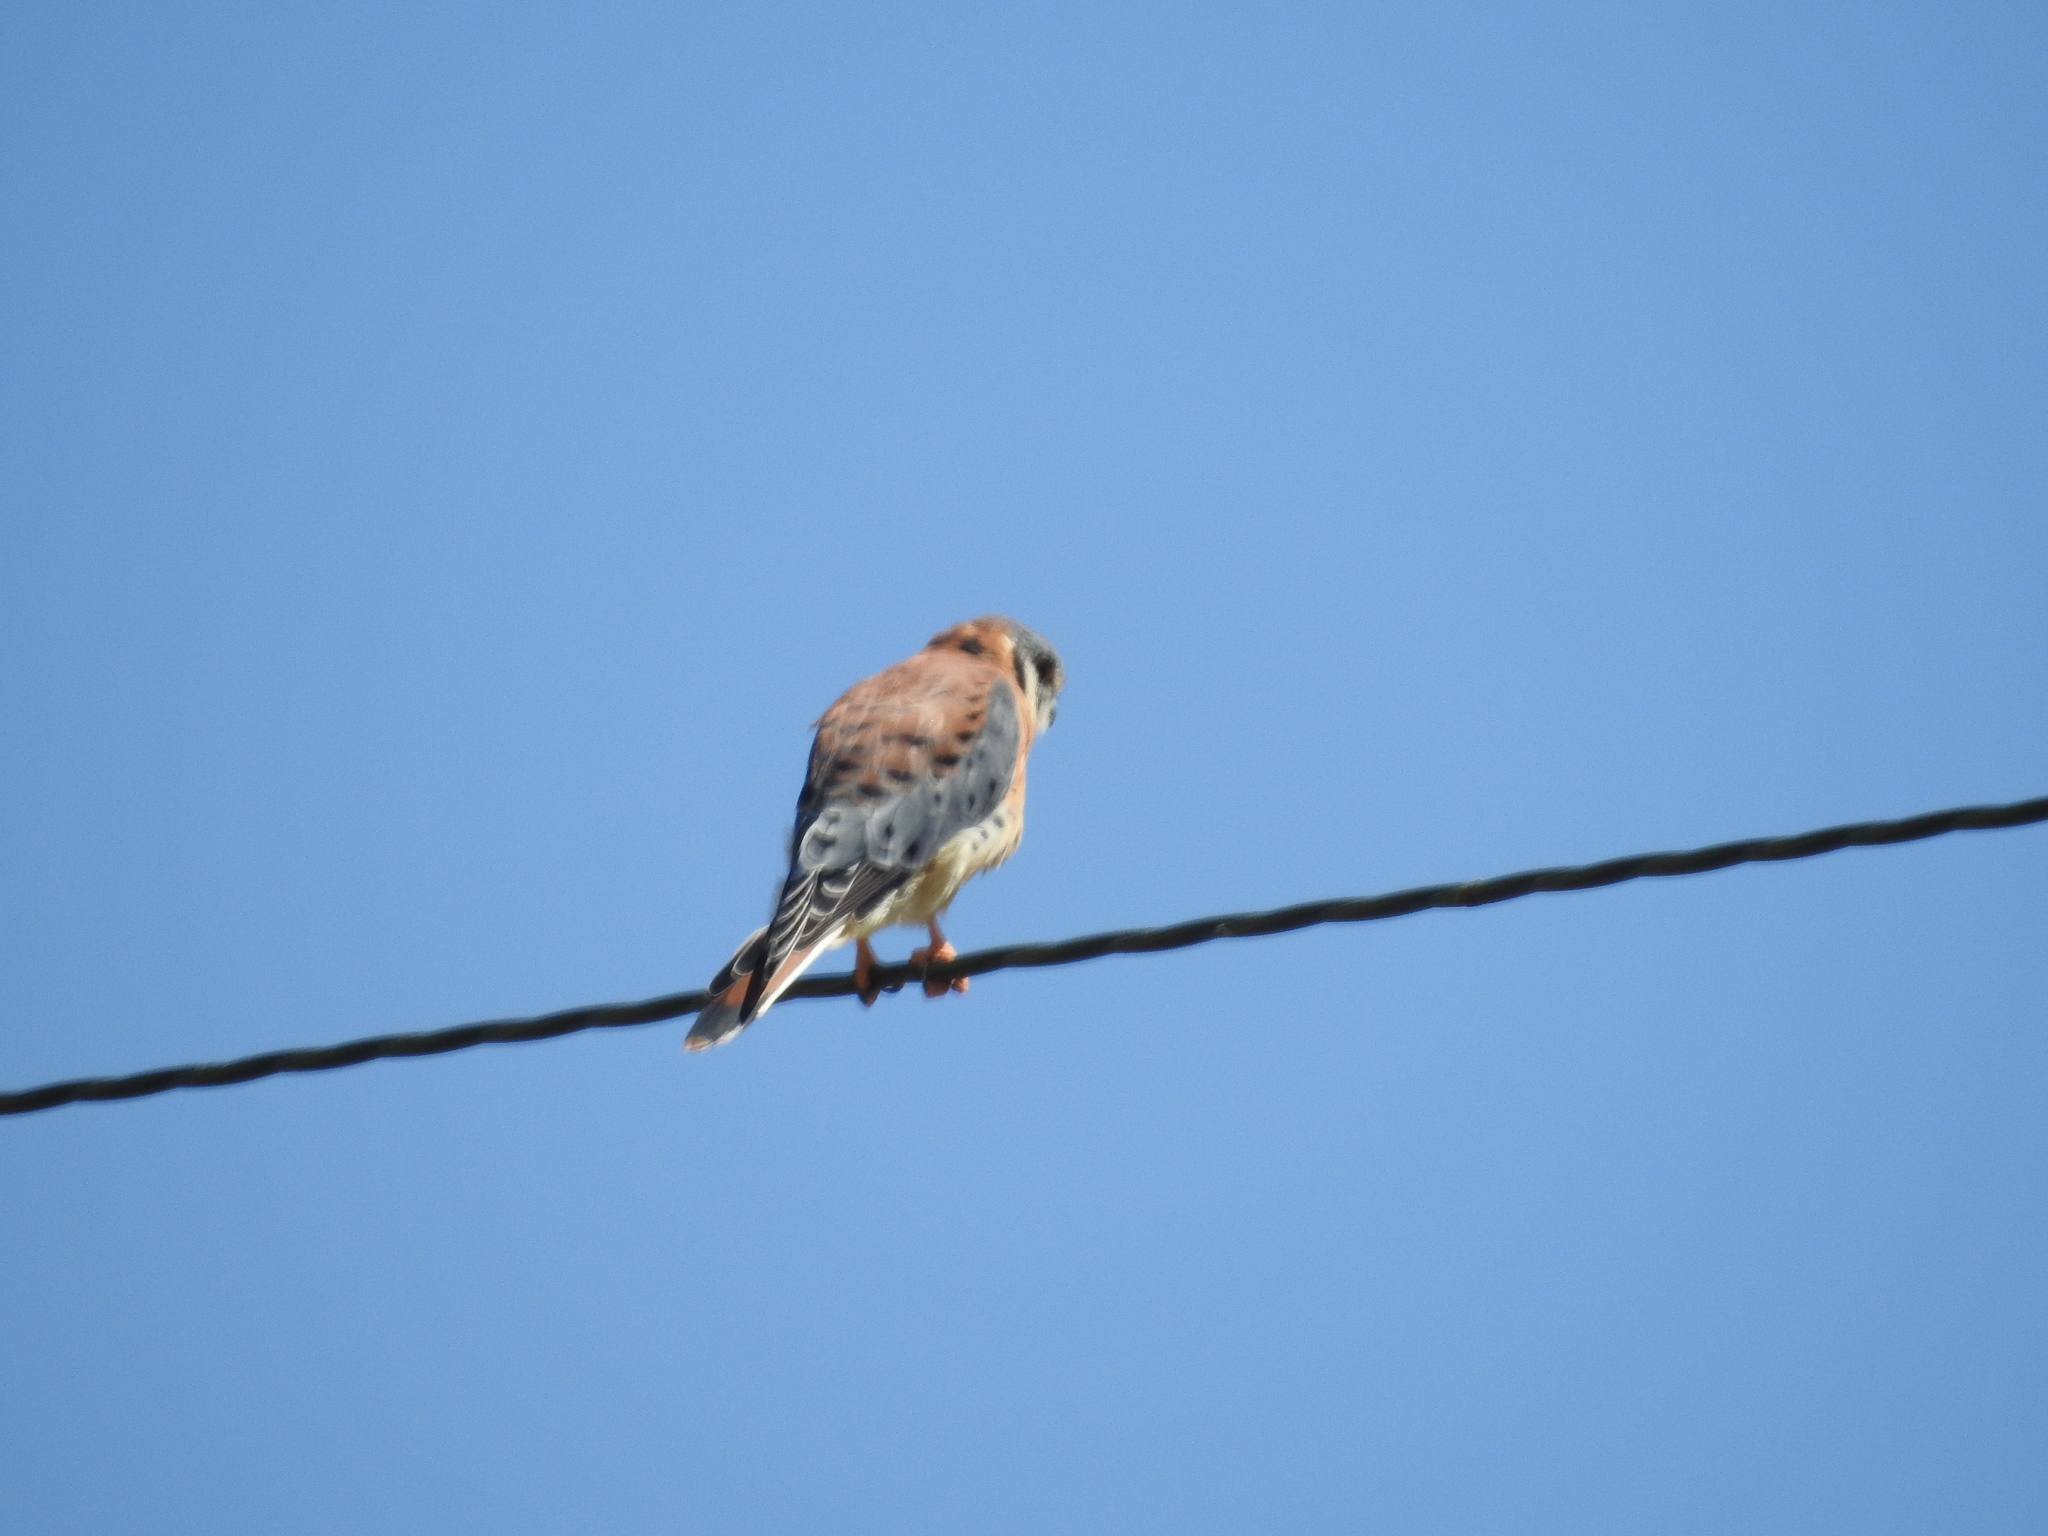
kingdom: Animalia
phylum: Chordata
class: Aves
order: Falconiformes
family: Falconidae
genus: Falco
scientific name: Falco sparverius
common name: American kestrel
